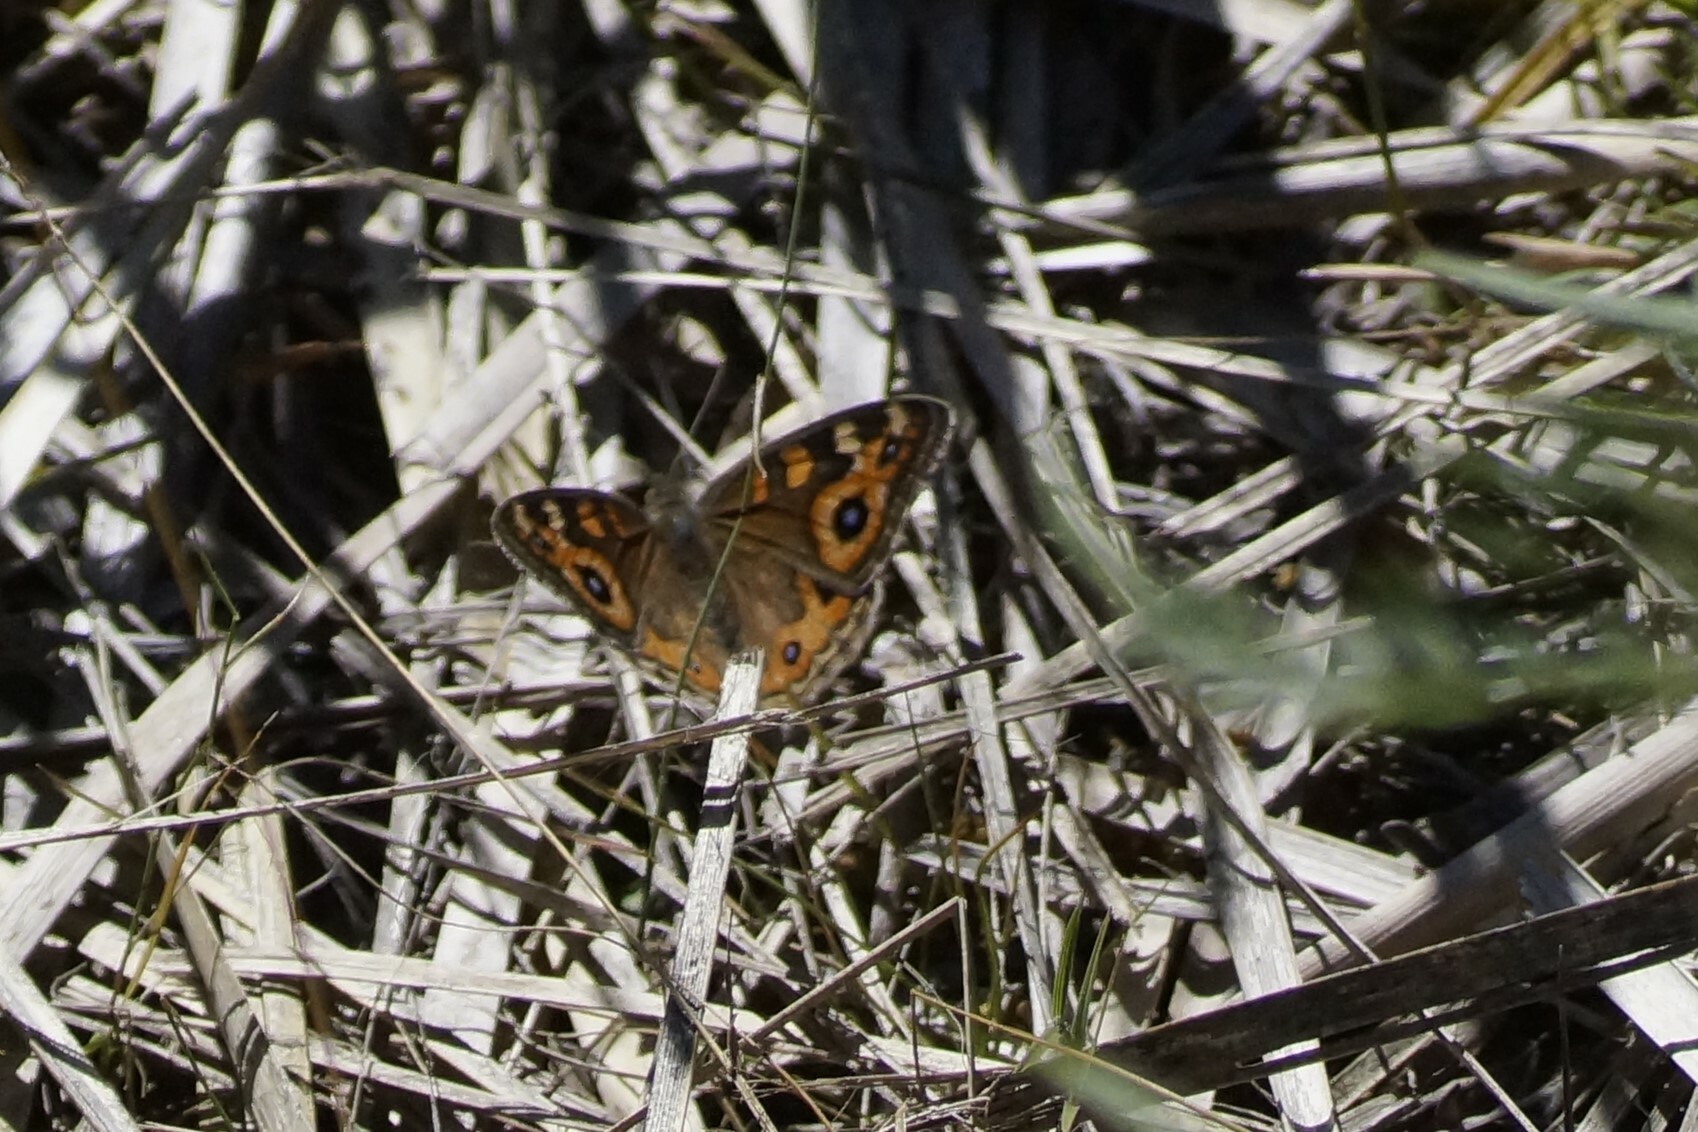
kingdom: Animalia
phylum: Arthropoda
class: Insecta
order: Lepidoptera
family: Nymphalidae
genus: Junonia
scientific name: Junonia villida
